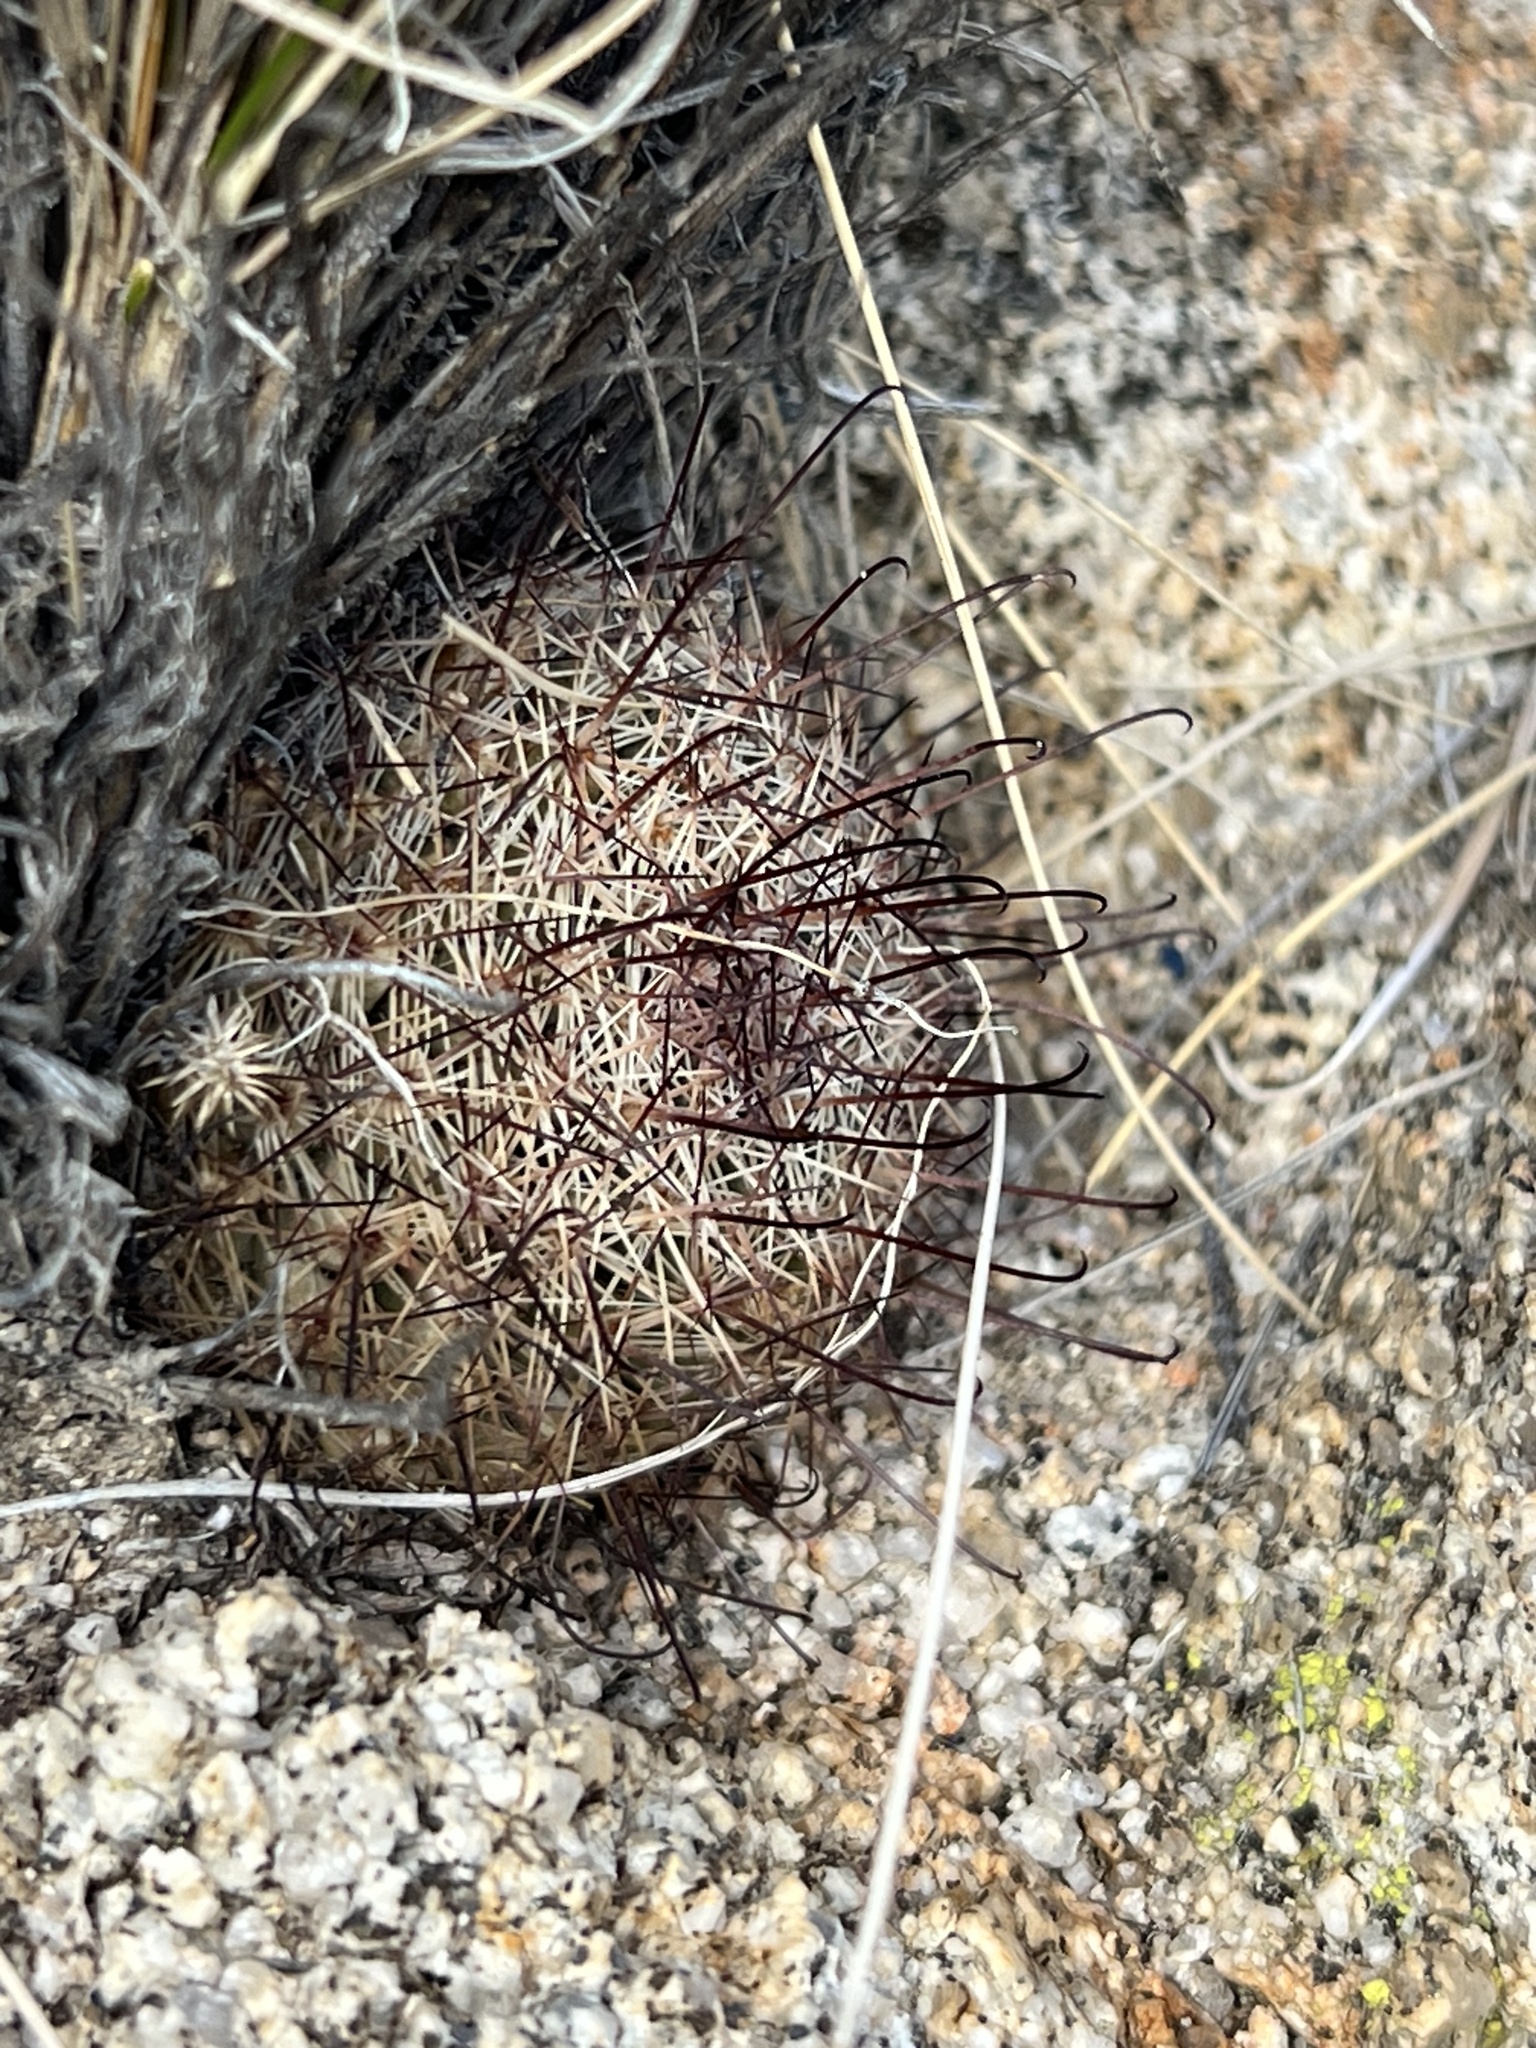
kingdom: Plantae
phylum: Tracheophyta
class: Magnoliopsida
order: Caryophyllales
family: Cactaceae
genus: Cochemiea
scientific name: Cochemiea dioica
